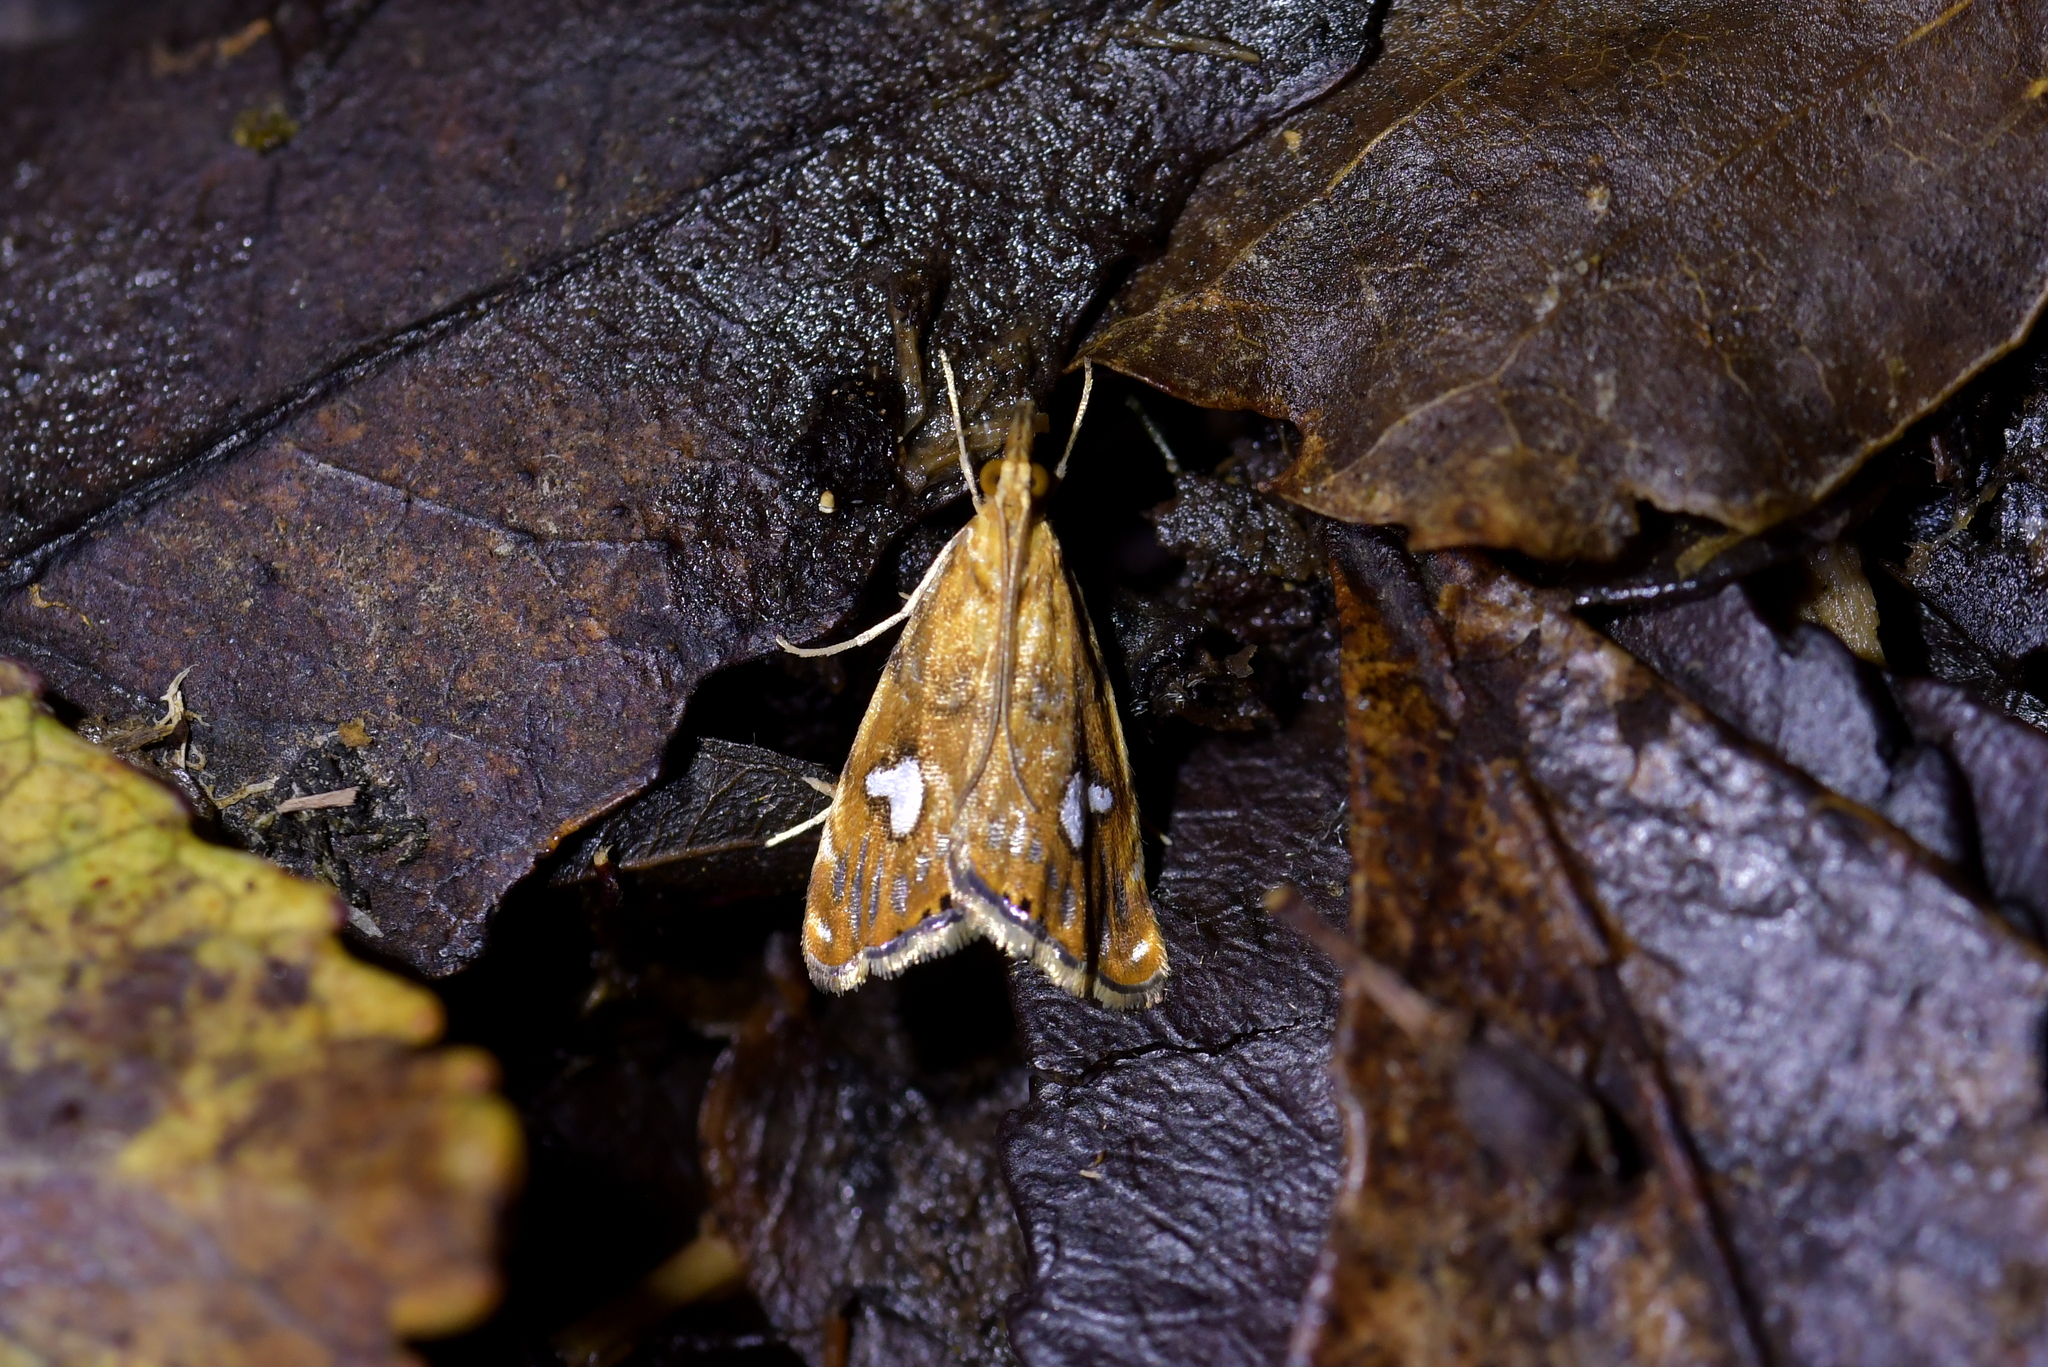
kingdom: Animalia
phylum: Arthropoda
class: Insecta
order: Lepidoptera
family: Crambidae
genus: Glaucocharis
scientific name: Glaucocharis leucoxantha
